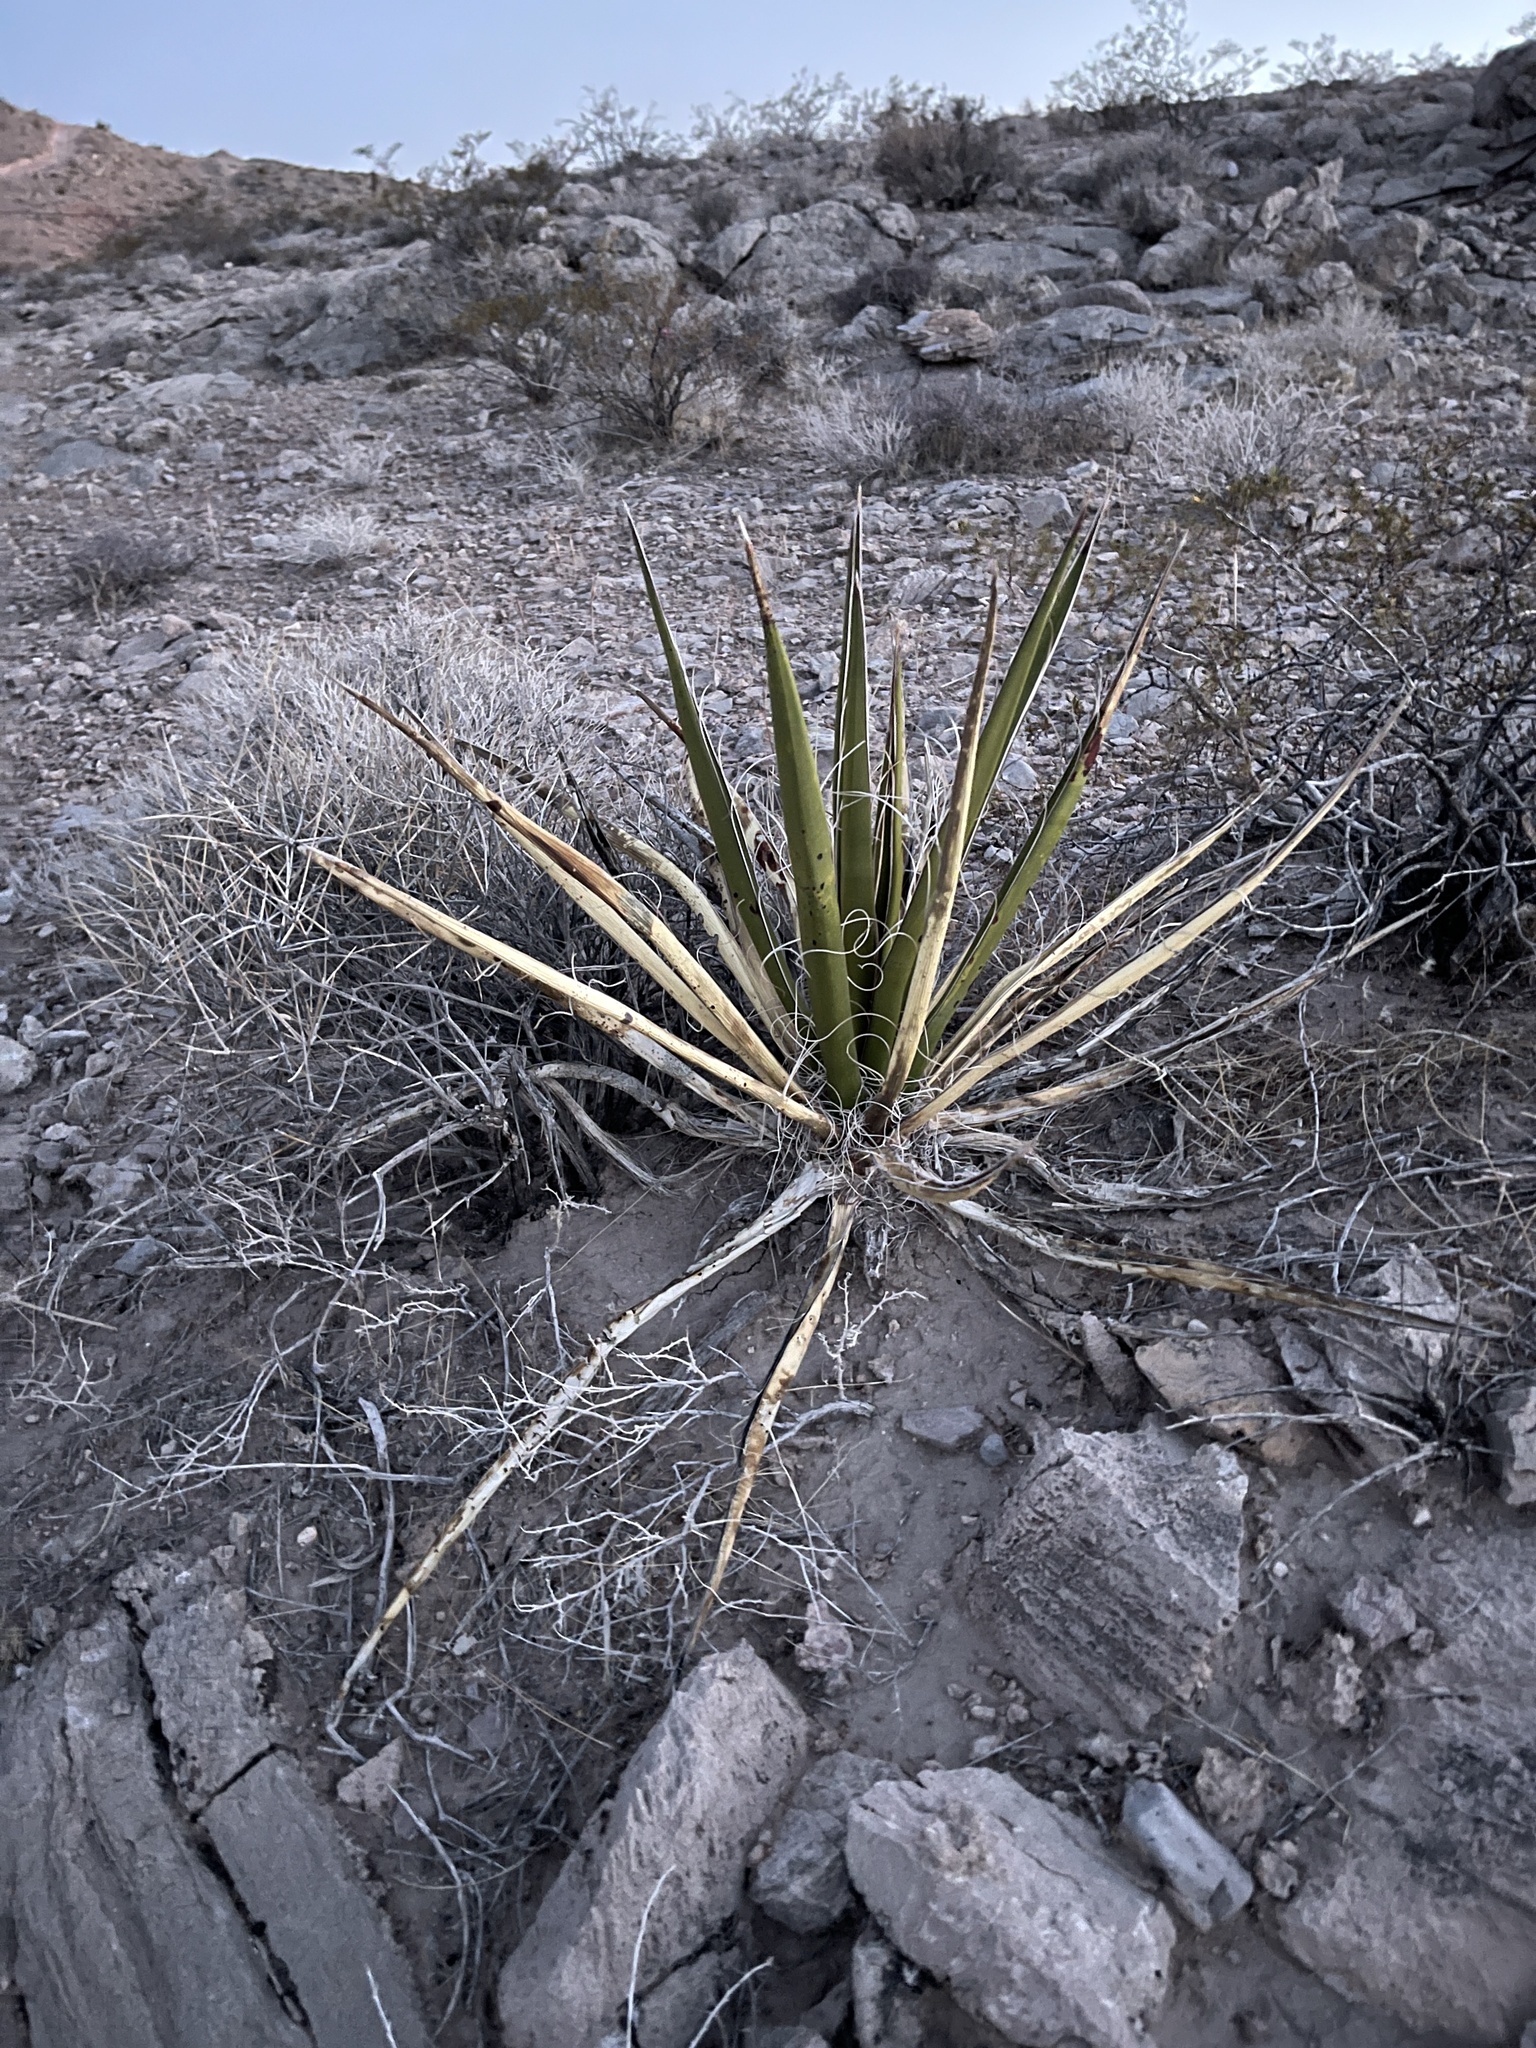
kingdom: Plantae
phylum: Tracheophyta
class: Liliopsida
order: Asparagales
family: Asparagaceae
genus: Yucca
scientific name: Yucca schidigera
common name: Mojave yucca
